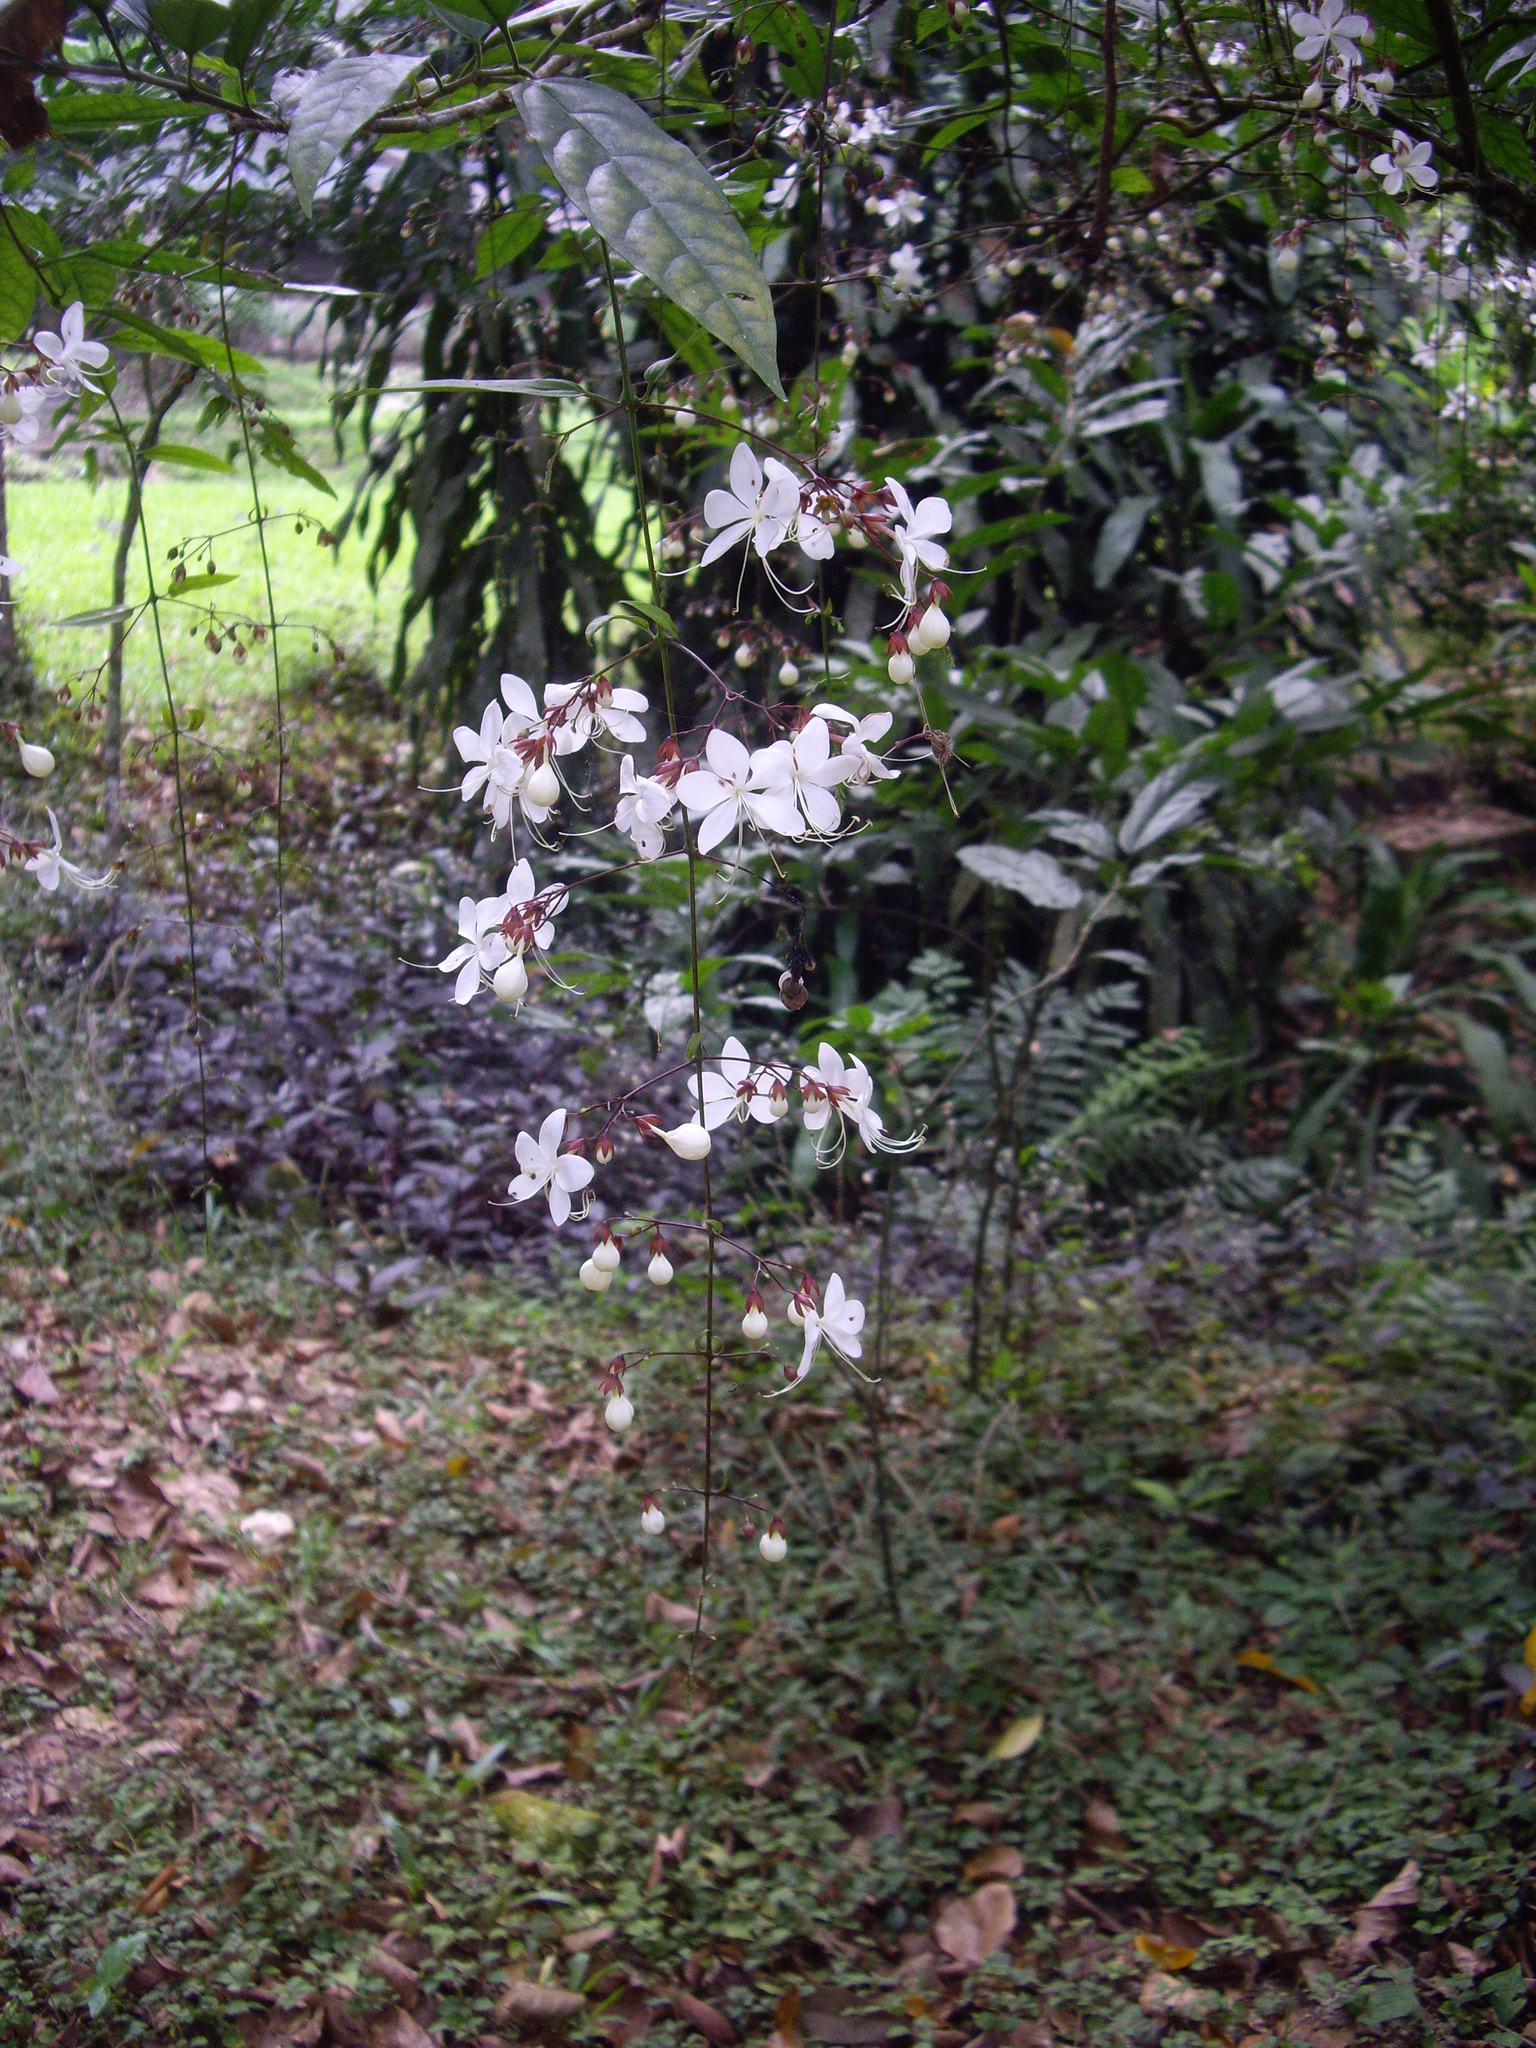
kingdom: Plantae
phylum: Tracheophyta
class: Magnoliopsida
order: Lamiales
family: Lamiaceae
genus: Clerodendrum
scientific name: Clerodendrum schmidtii
